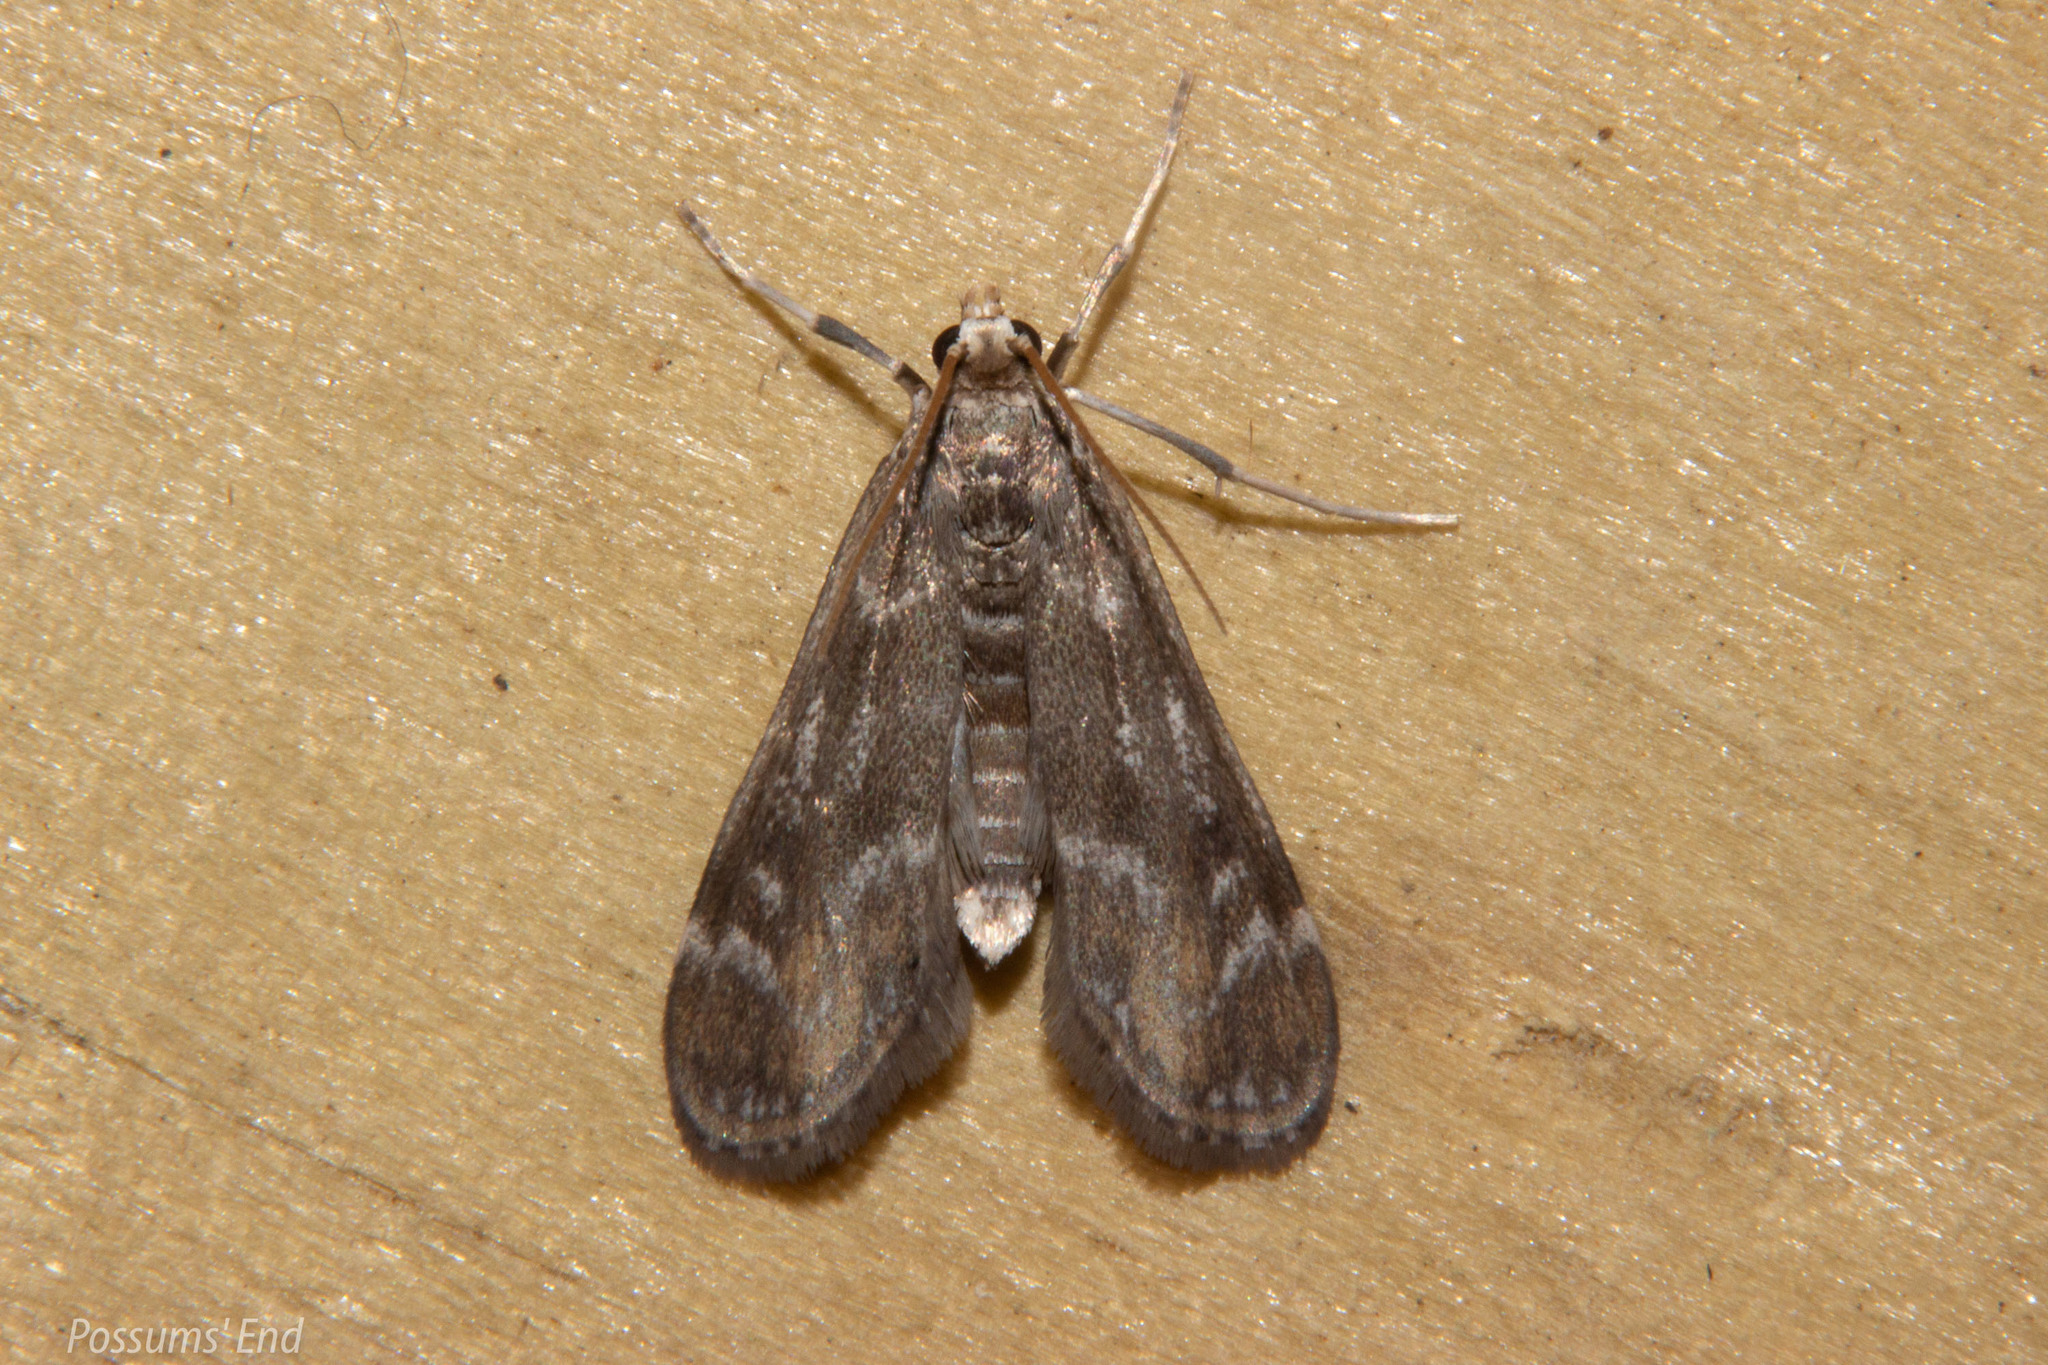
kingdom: Animalia
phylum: Arthropoda
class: Insecta
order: Lepidoptera
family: Crambidae
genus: Hygraula
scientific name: Hygraula nitens
